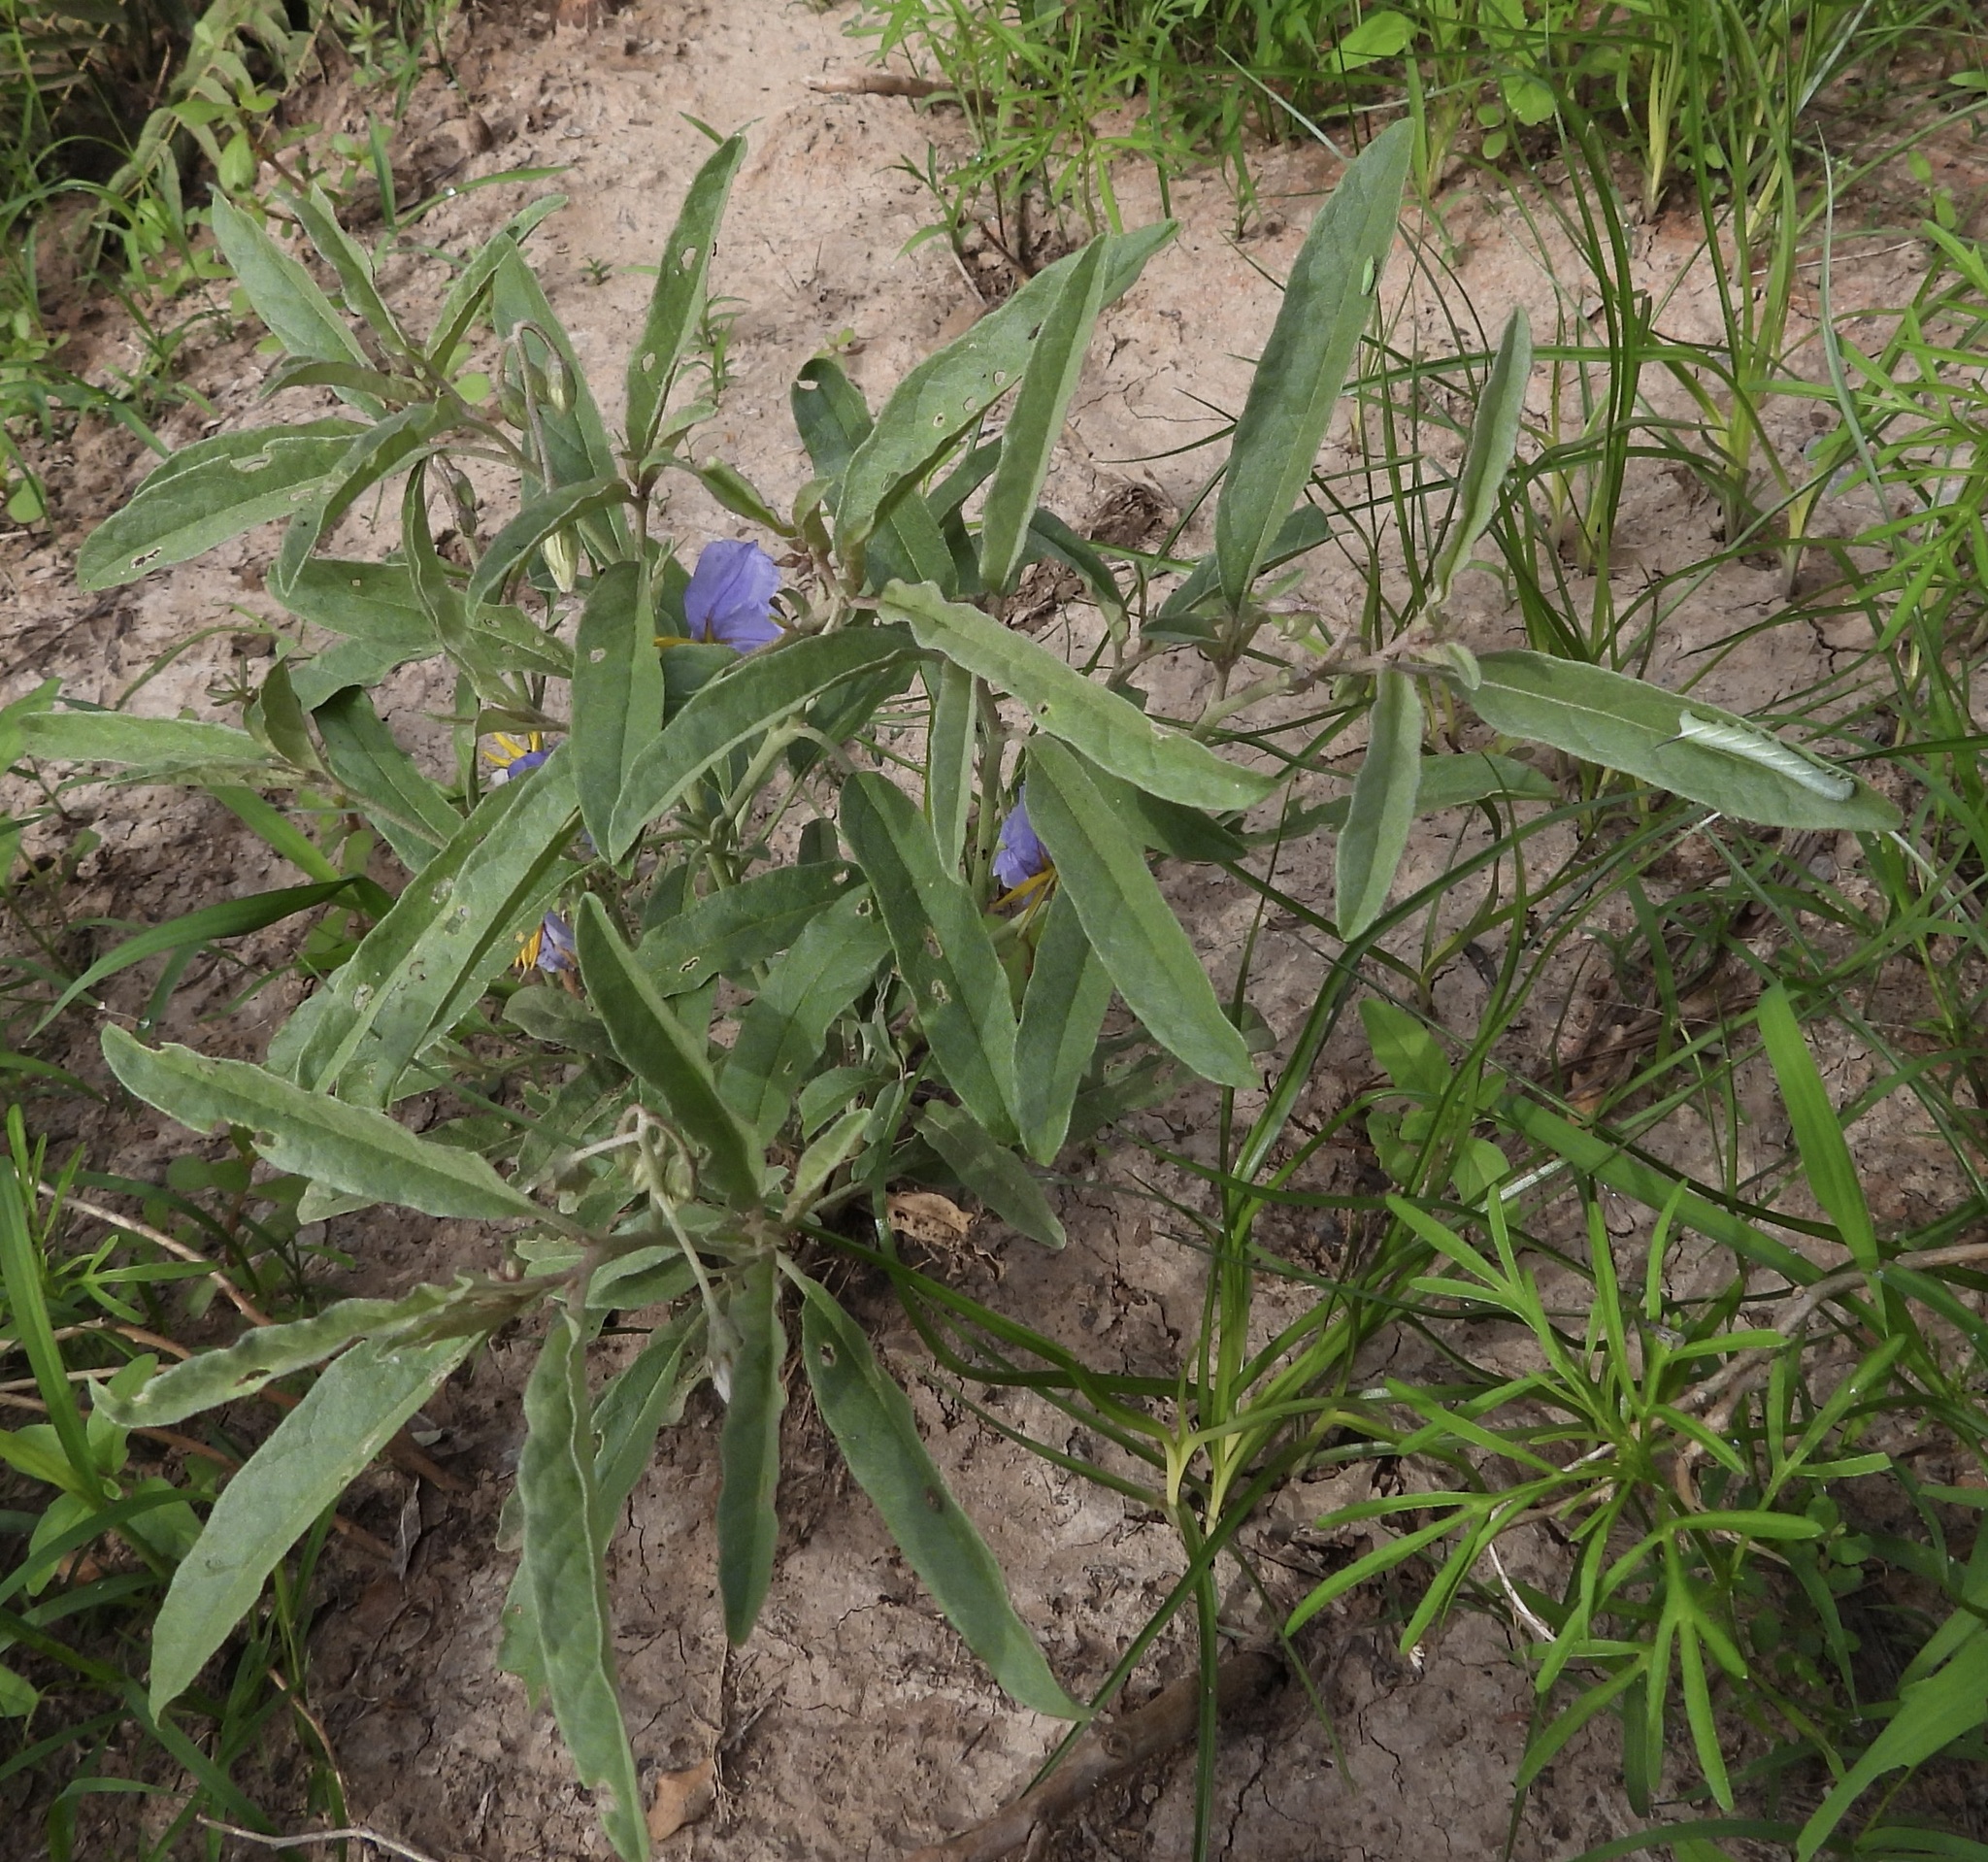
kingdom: Plantae
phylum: Tracheophyta
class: Magnoliopsida
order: Solanales
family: Solanaceae
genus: Solanum
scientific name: Solanum elaeagnifolium
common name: Silverleaf nightshade
